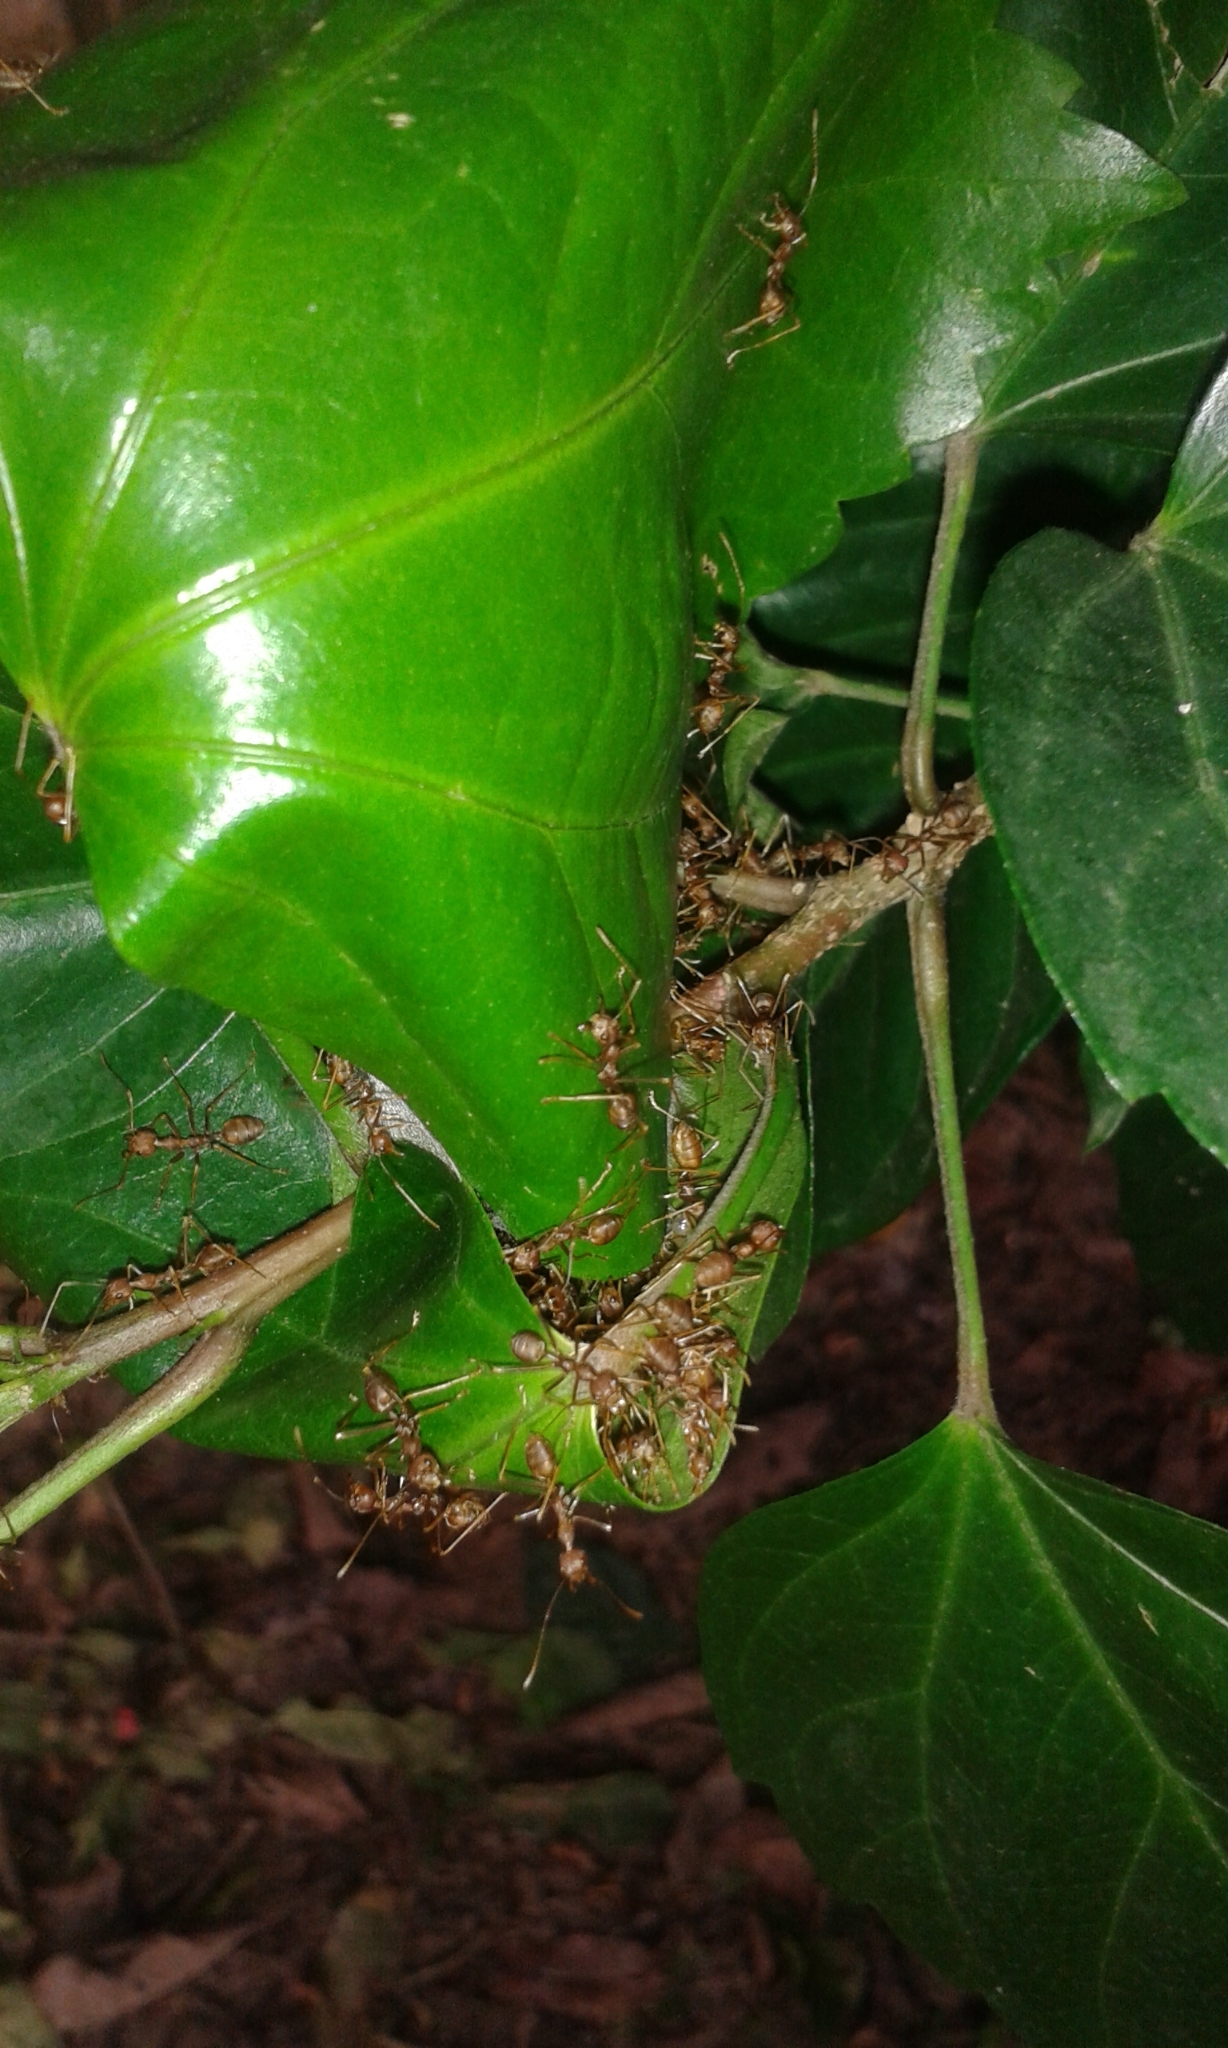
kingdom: Animalia
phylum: Arthropoda
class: Insecta
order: Hymenoptera
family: Formicidae
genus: Oecophylla
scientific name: Oecophylla smaragdina
